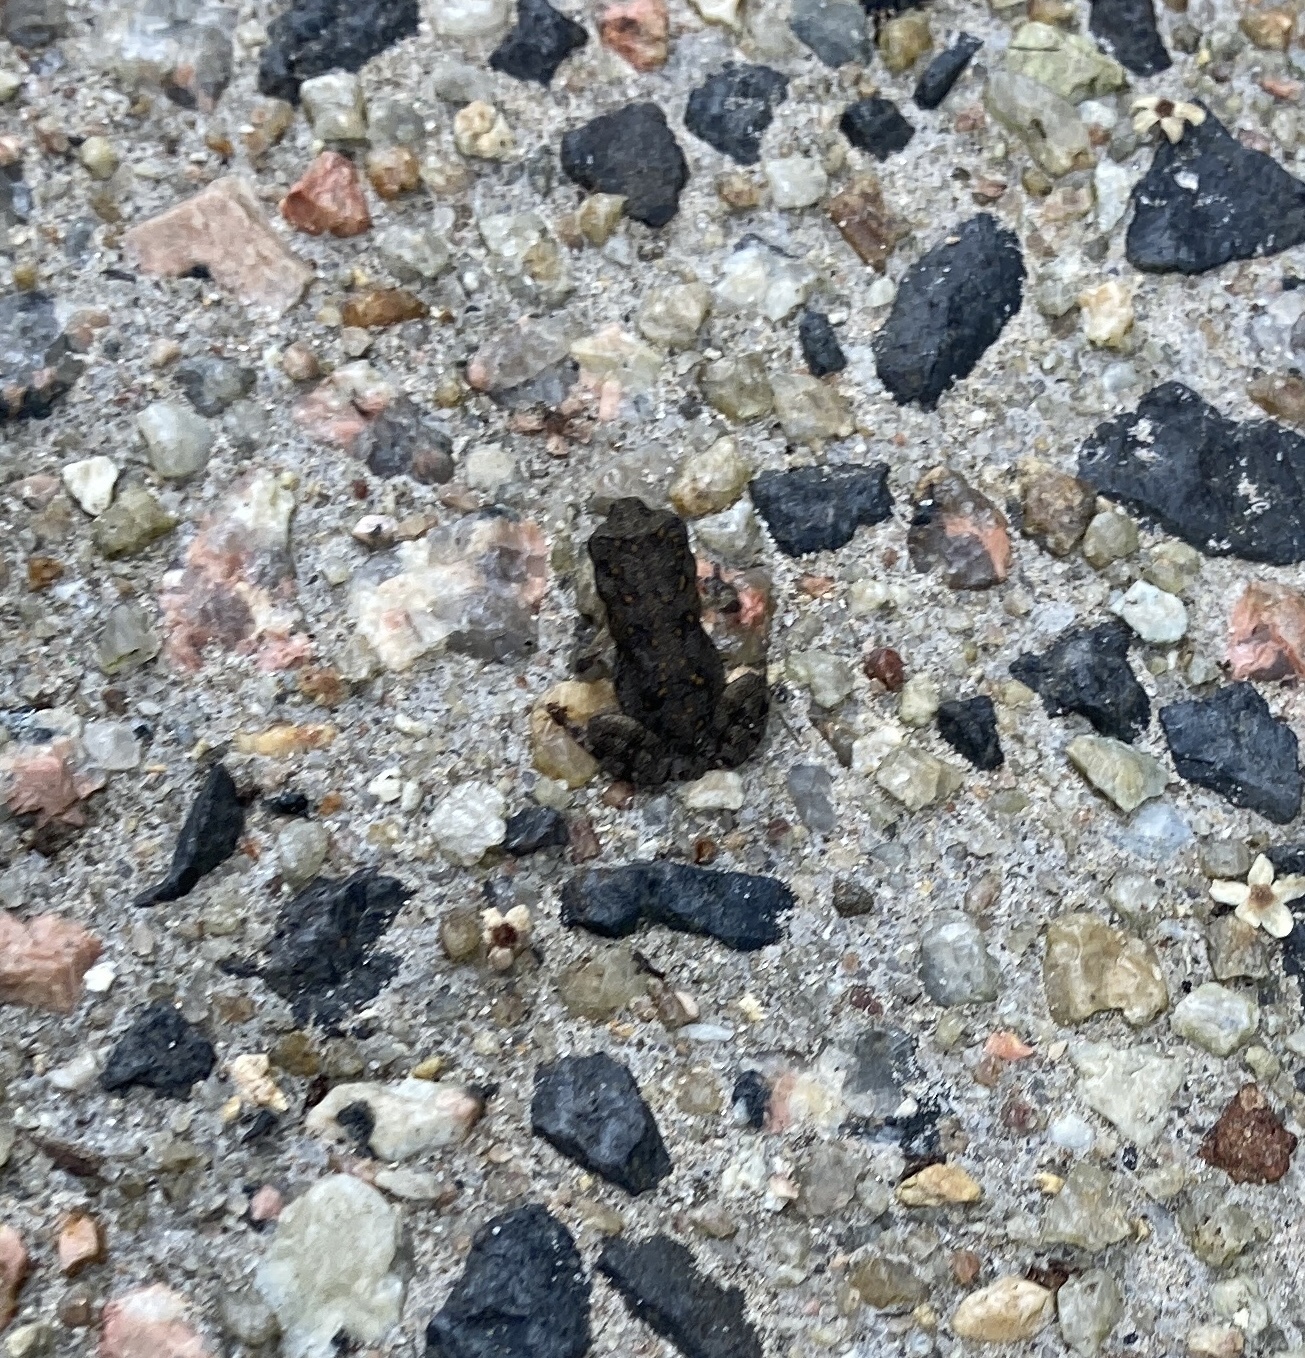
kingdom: Animalia
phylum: Chordata
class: Amphibia
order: Anura
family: Bufonidae
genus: Rhinella
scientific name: Rhinella marina
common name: Cane toad
